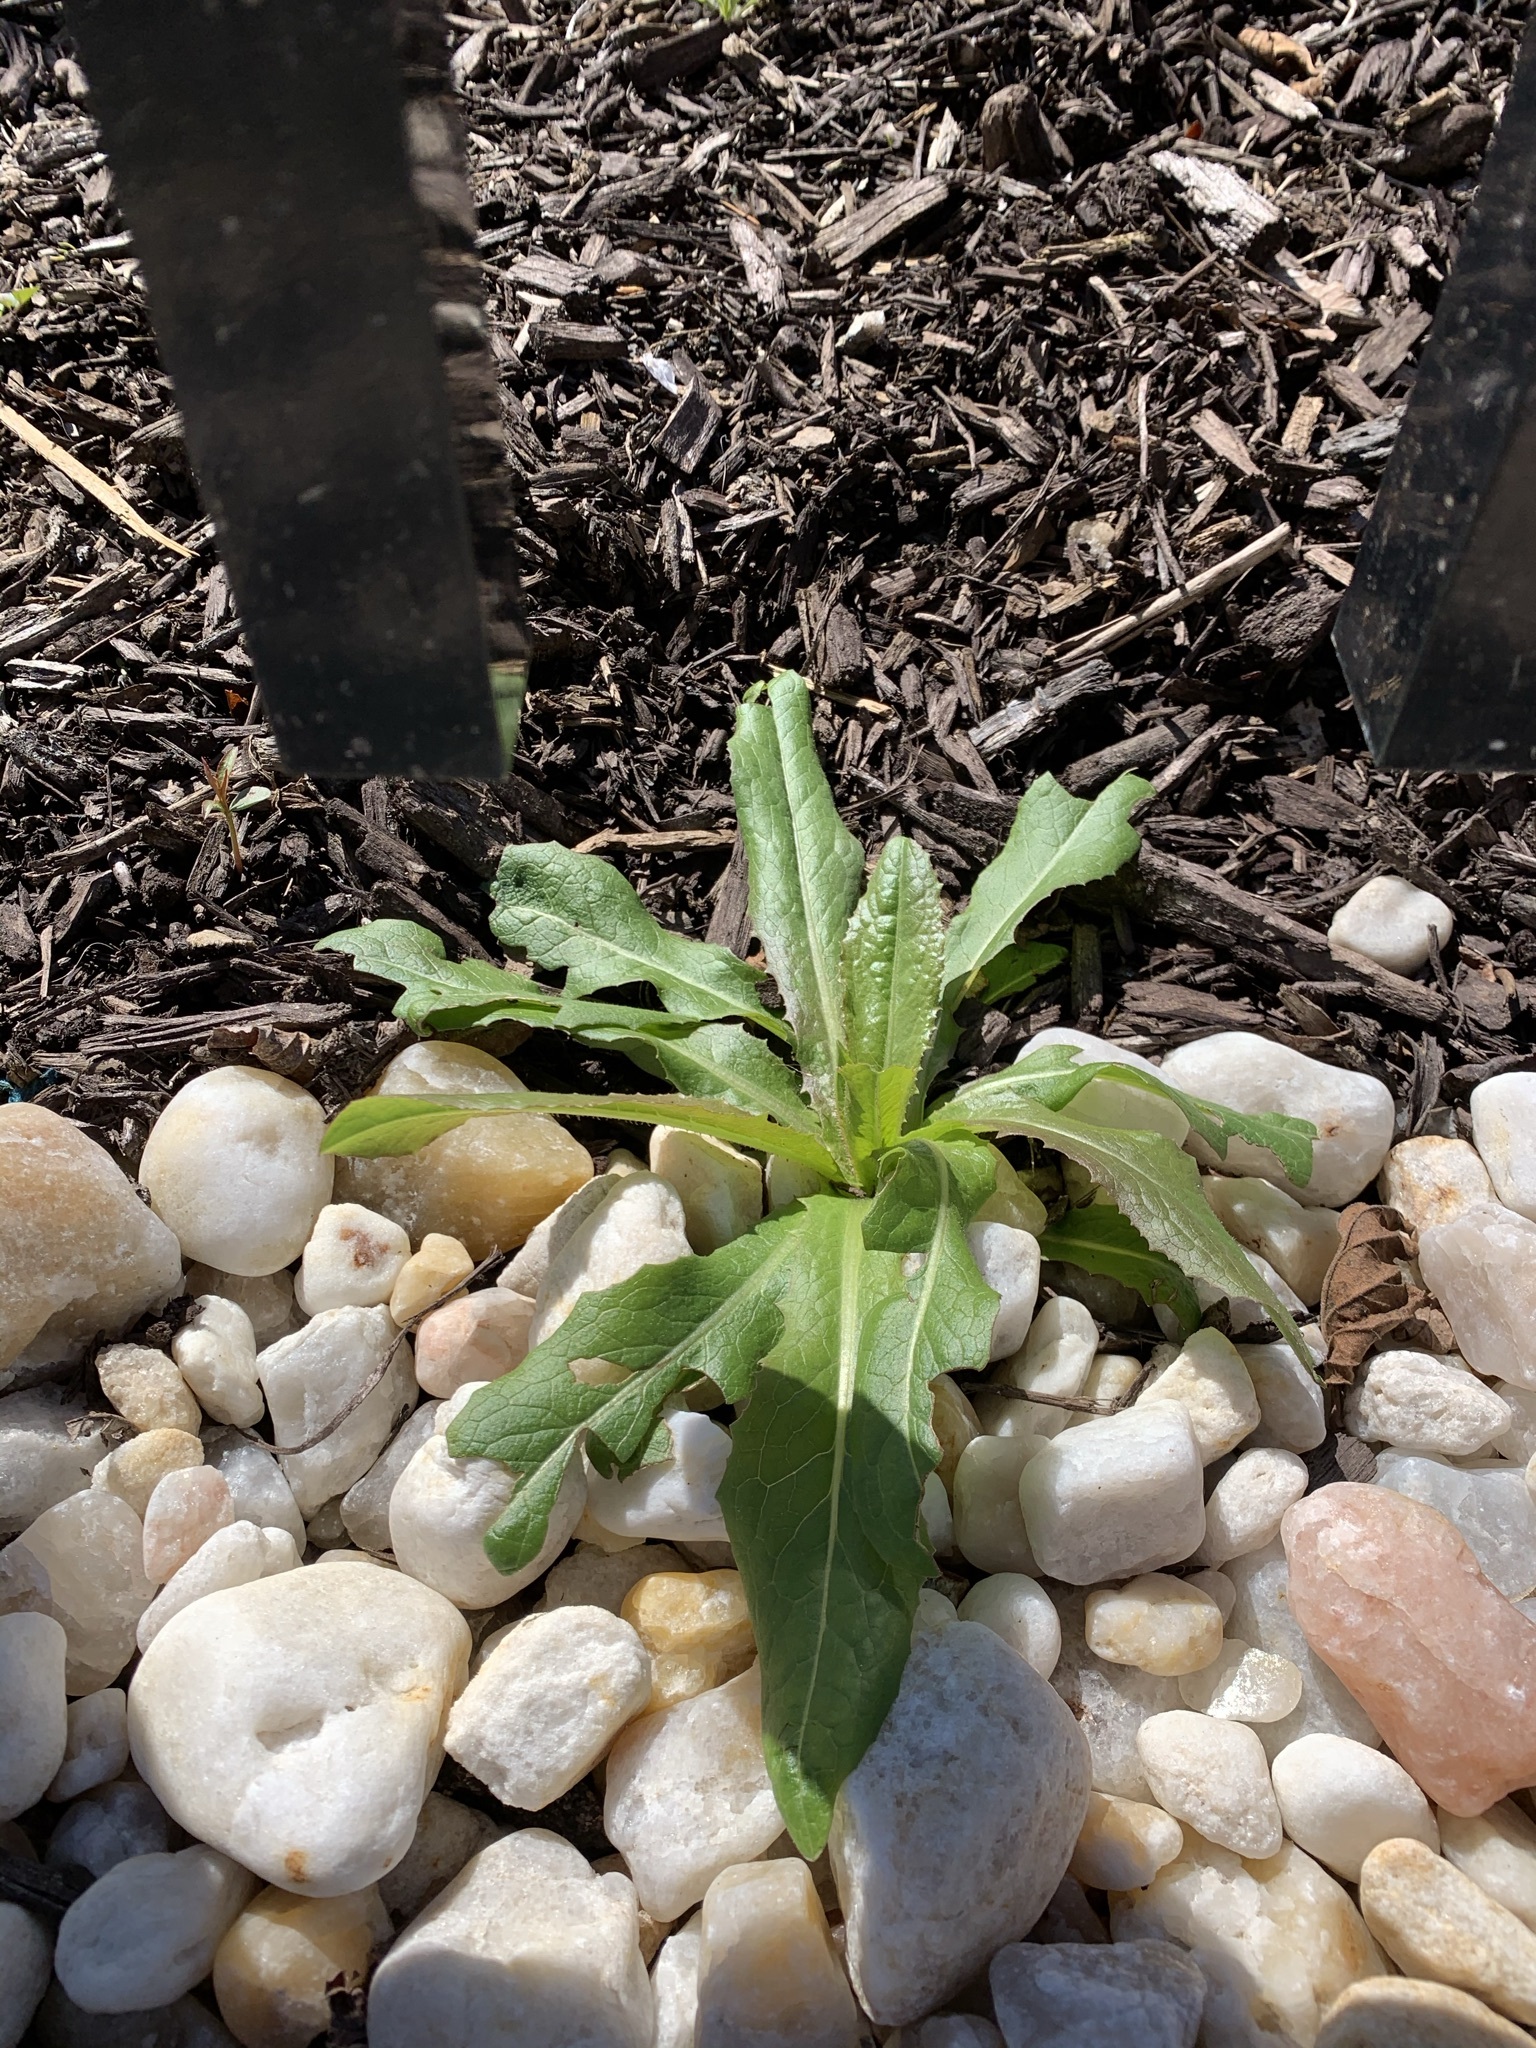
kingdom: Plantae
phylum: Tracheophyta
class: Magnoliopsida
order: Asterales
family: Asteraceae
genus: Lactuca
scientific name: Lactuca serriola
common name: Prickly lettuce
